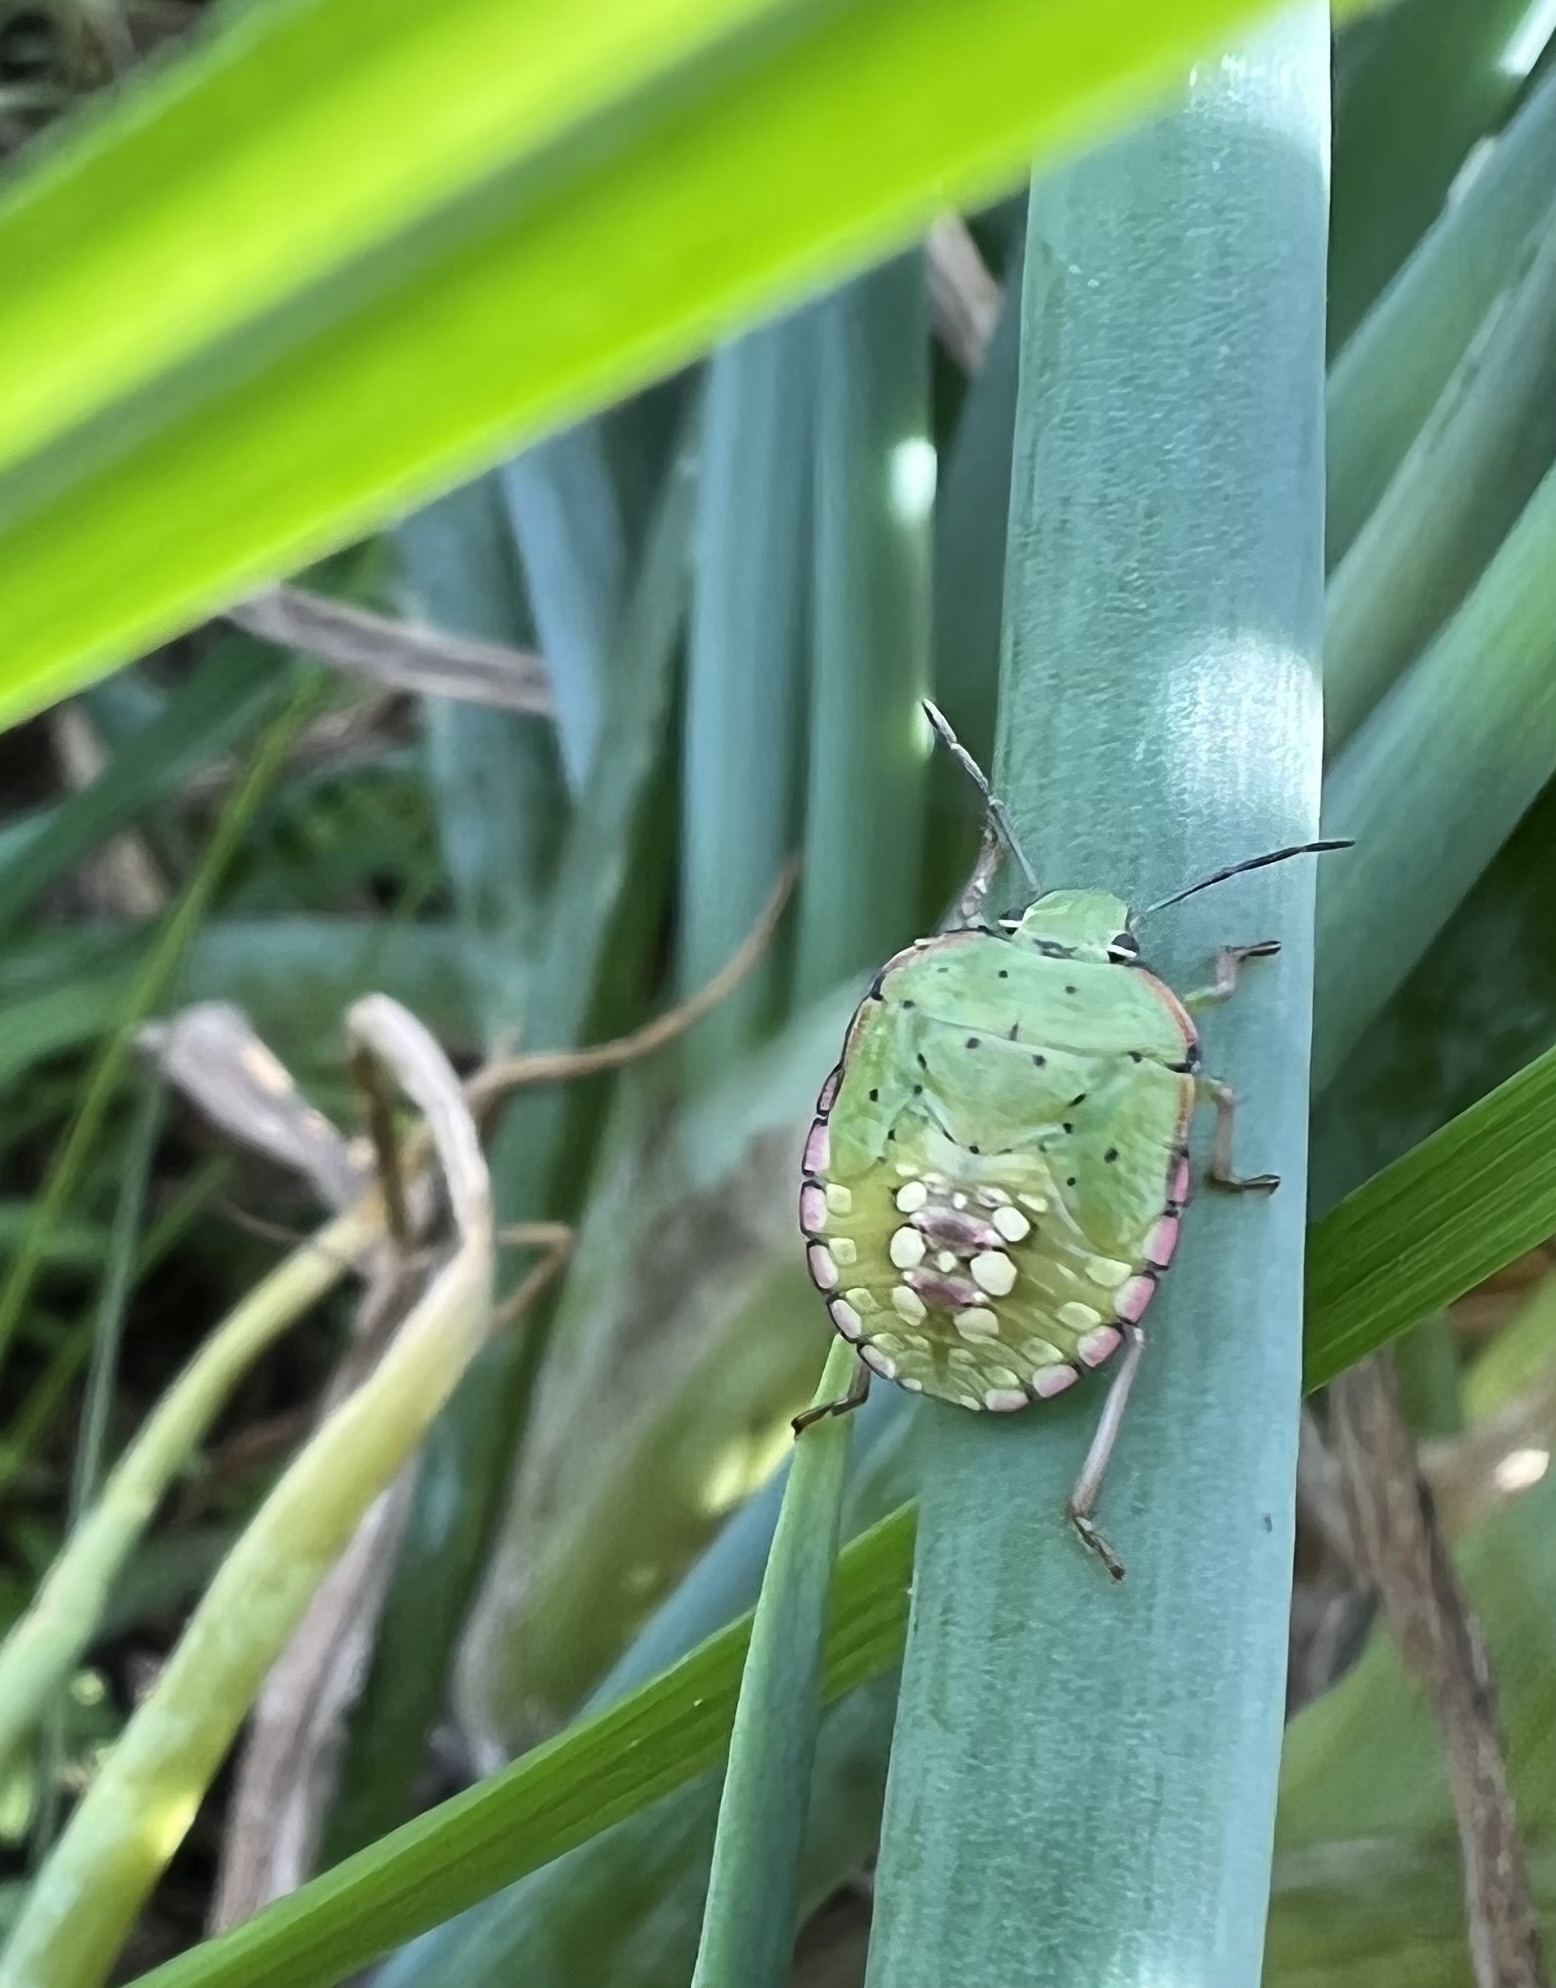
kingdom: Animalia
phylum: Arthropoda
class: Insecta
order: Hemiptera
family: Pentatomidae
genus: Nezara
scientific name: Nezara viridula
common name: Southern green stink bug
